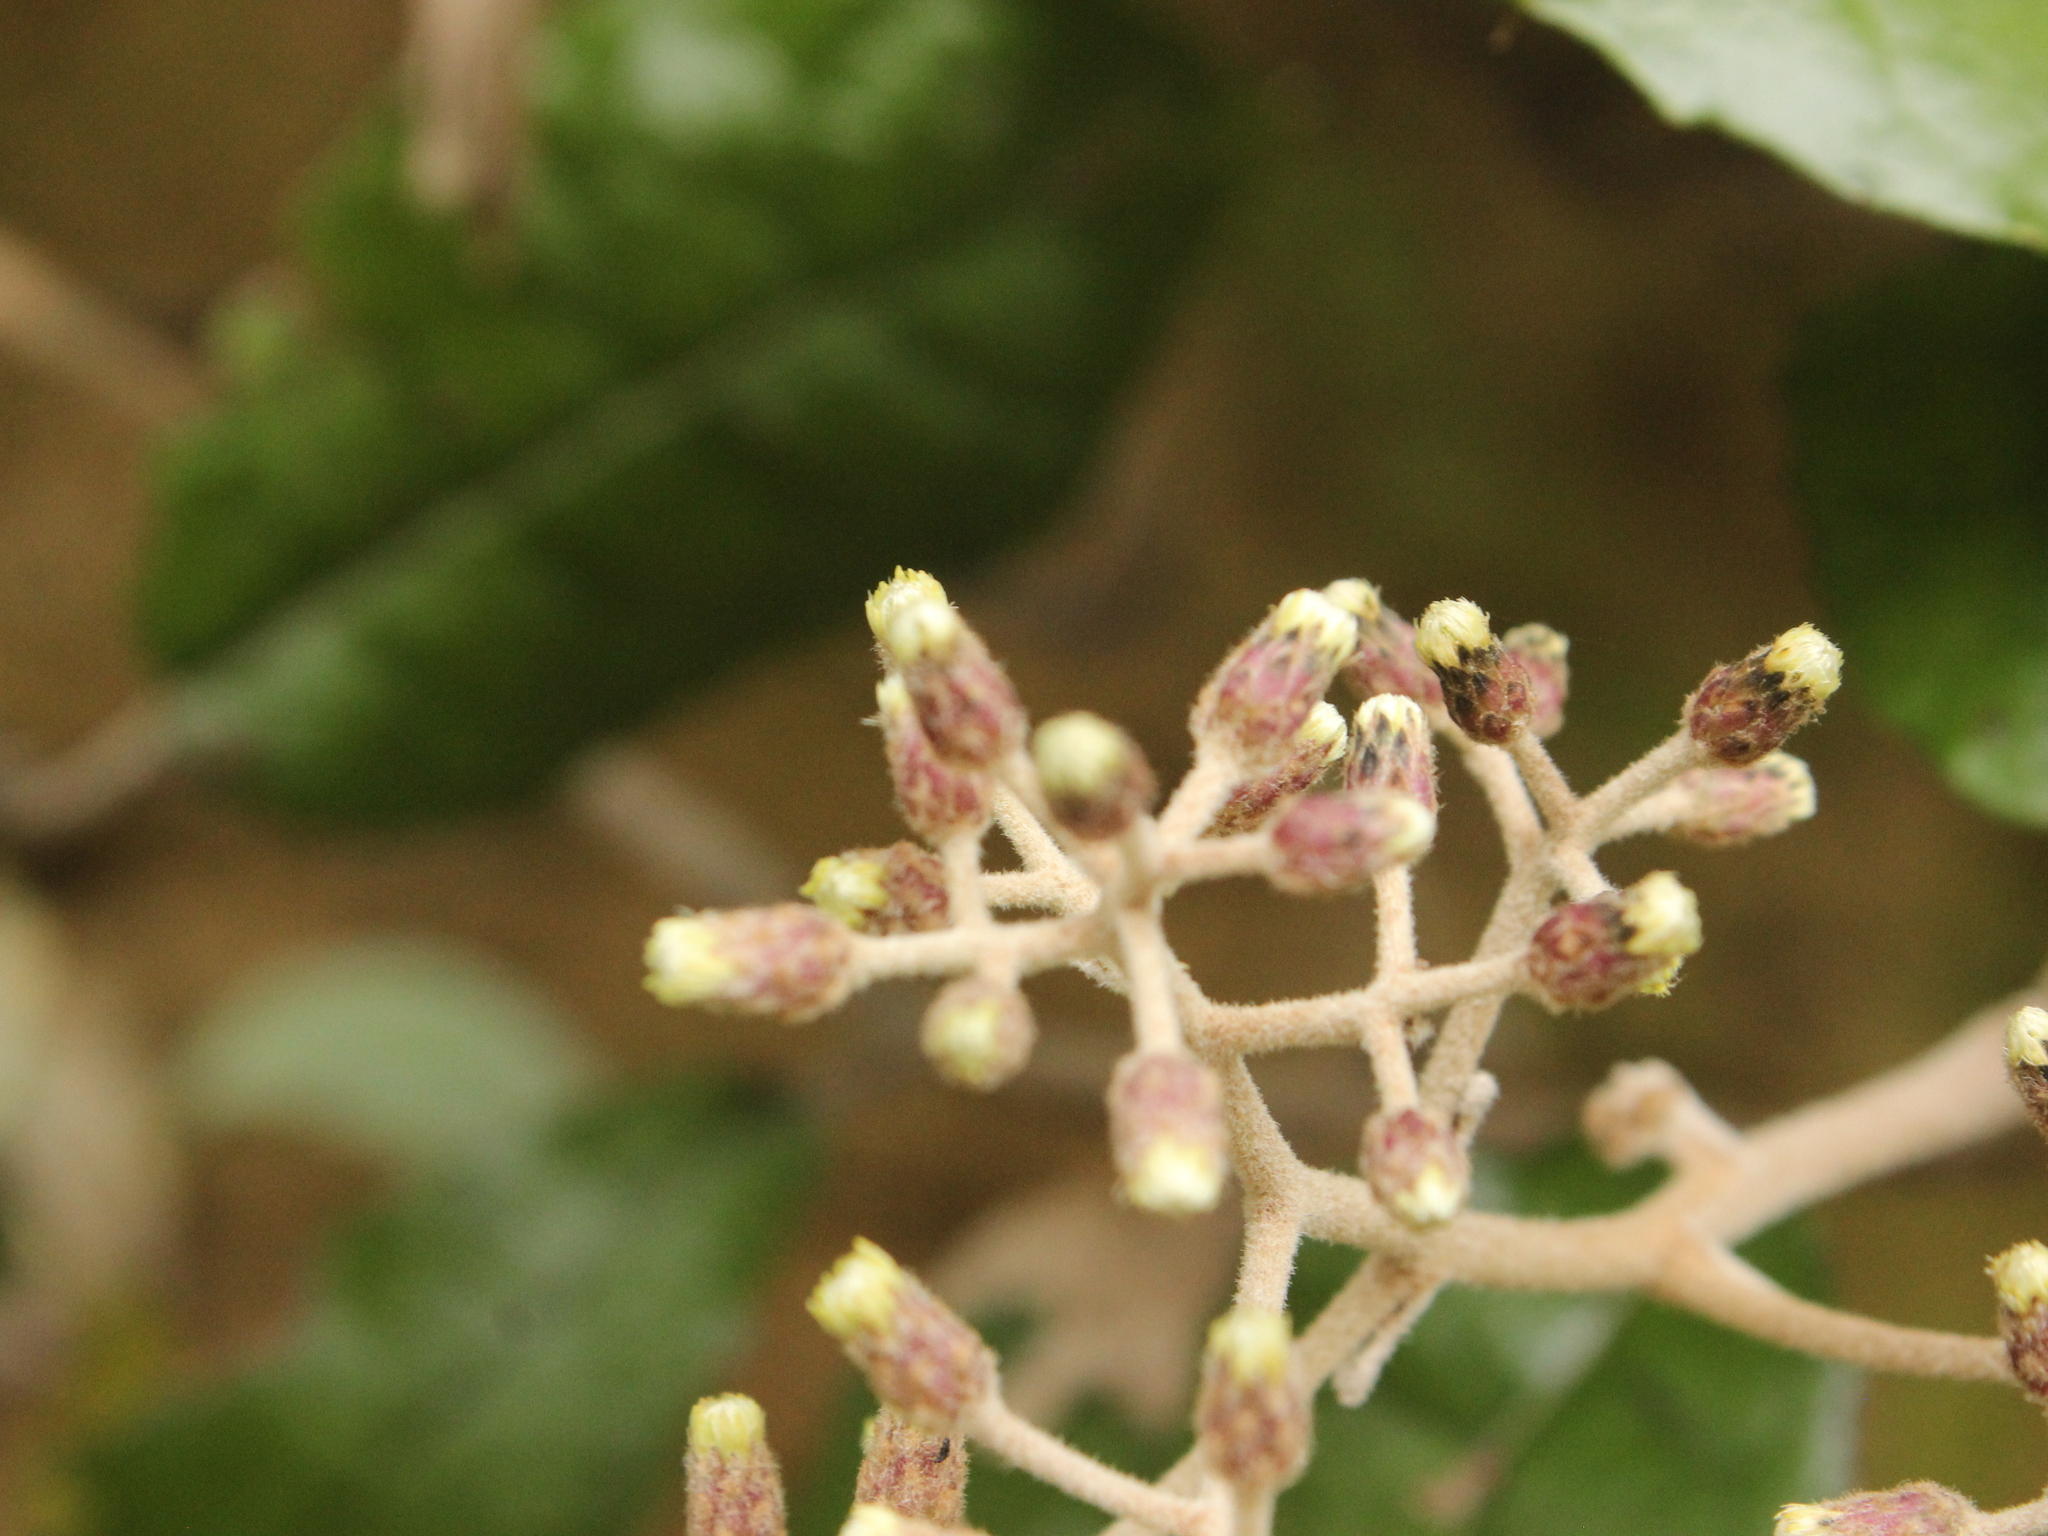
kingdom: Plantae
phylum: Tracheophyta
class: Magnoliopsida
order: Asterales
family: Asteraceae
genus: Olearia
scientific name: Olearia rani
